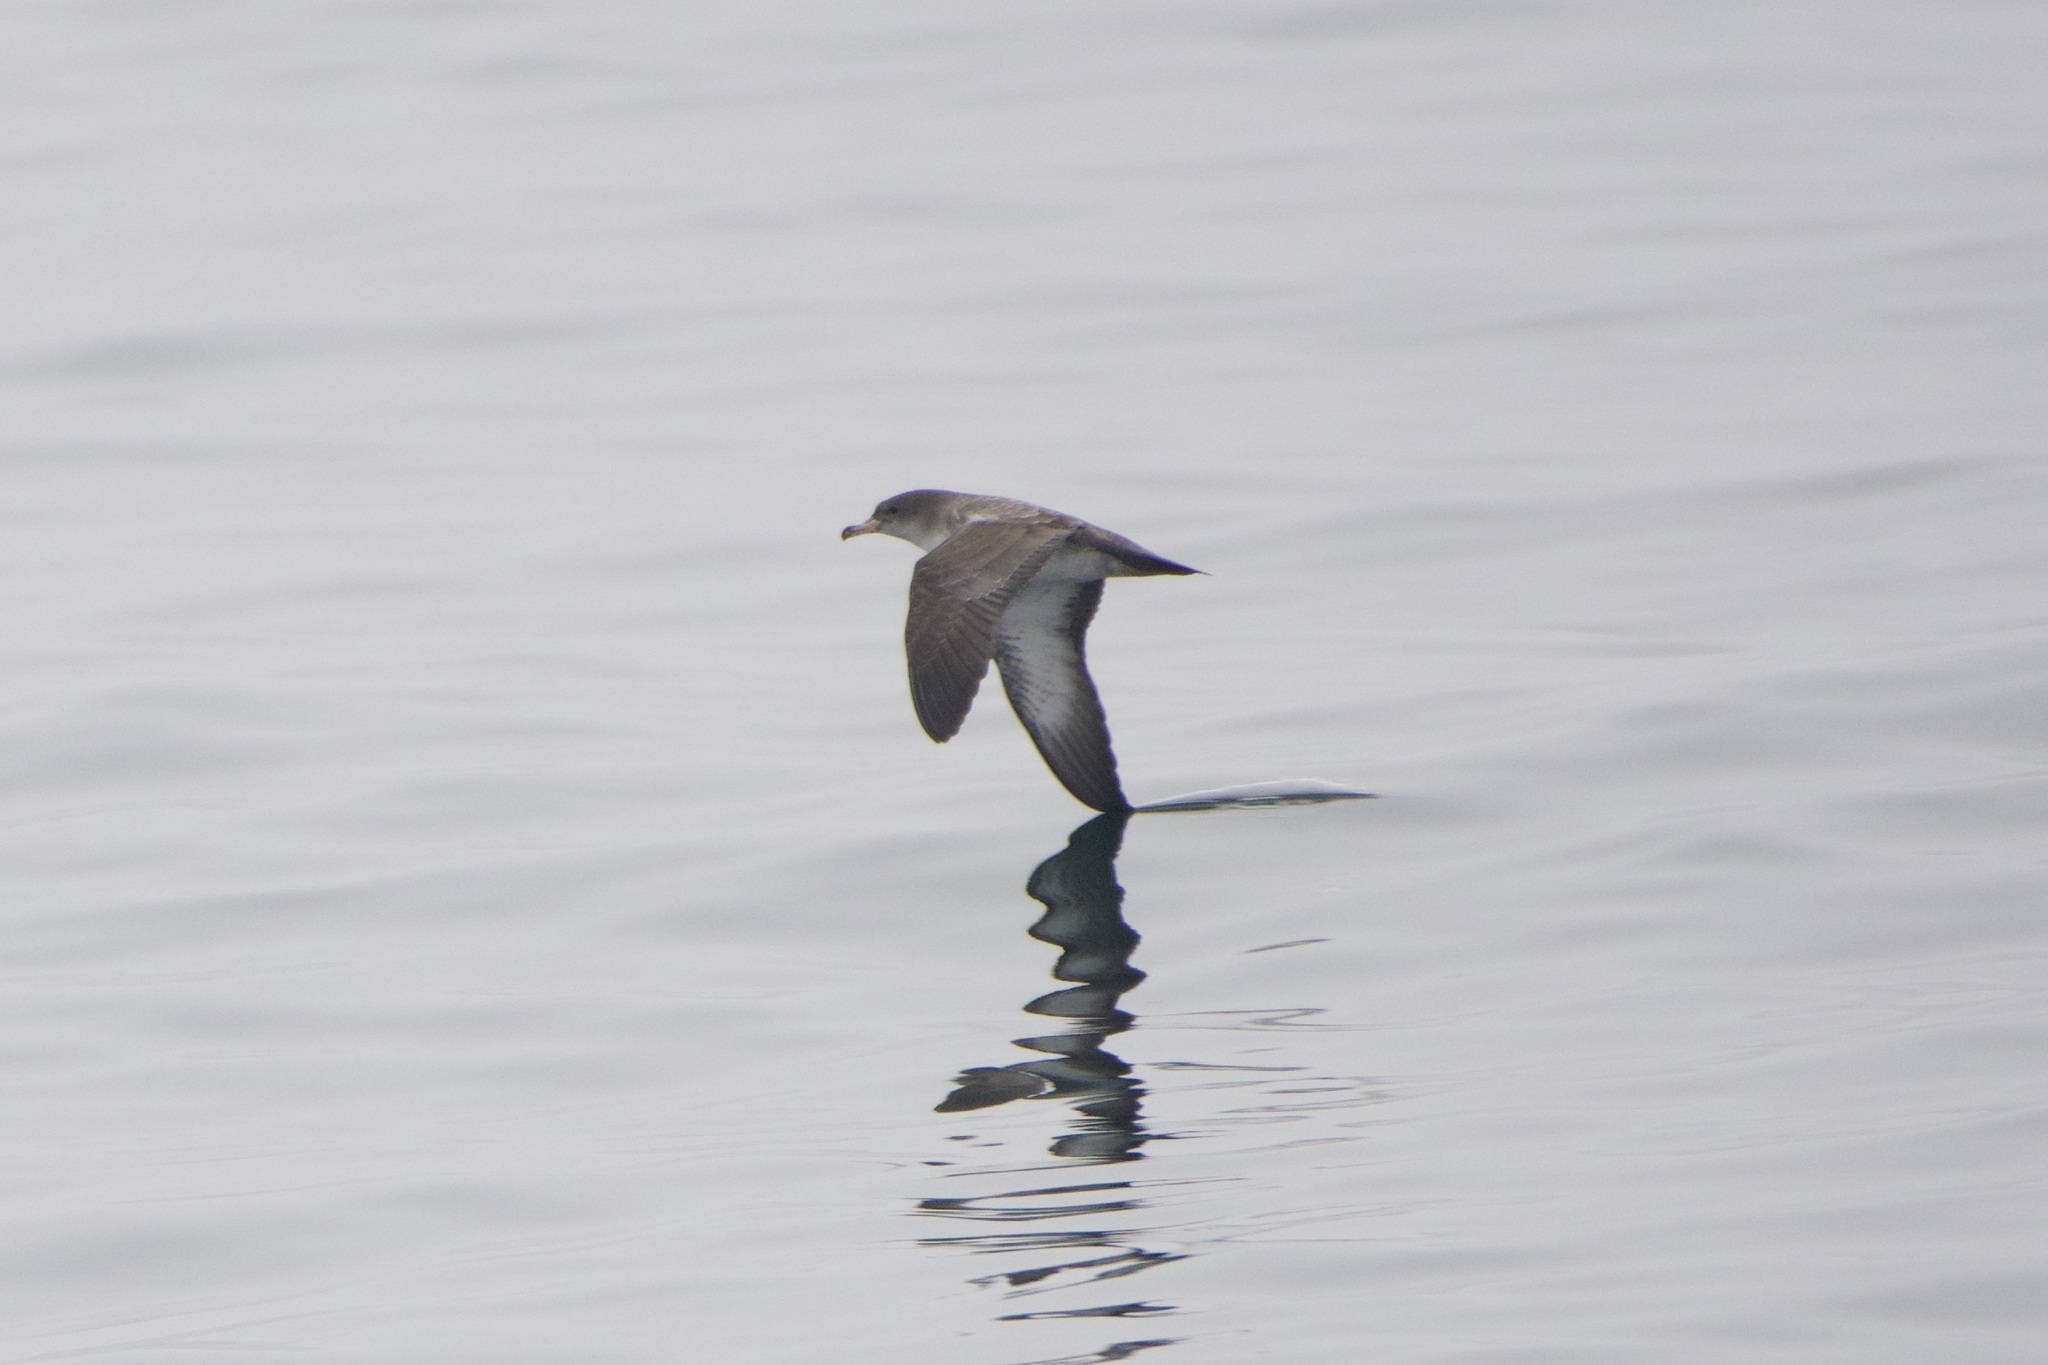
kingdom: Animalia
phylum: Chordata
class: Aves
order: Procellariiformes
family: Procellariidae
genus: Puffinus
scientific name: Puffinus creatopus
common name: Pink-footed shearwater
